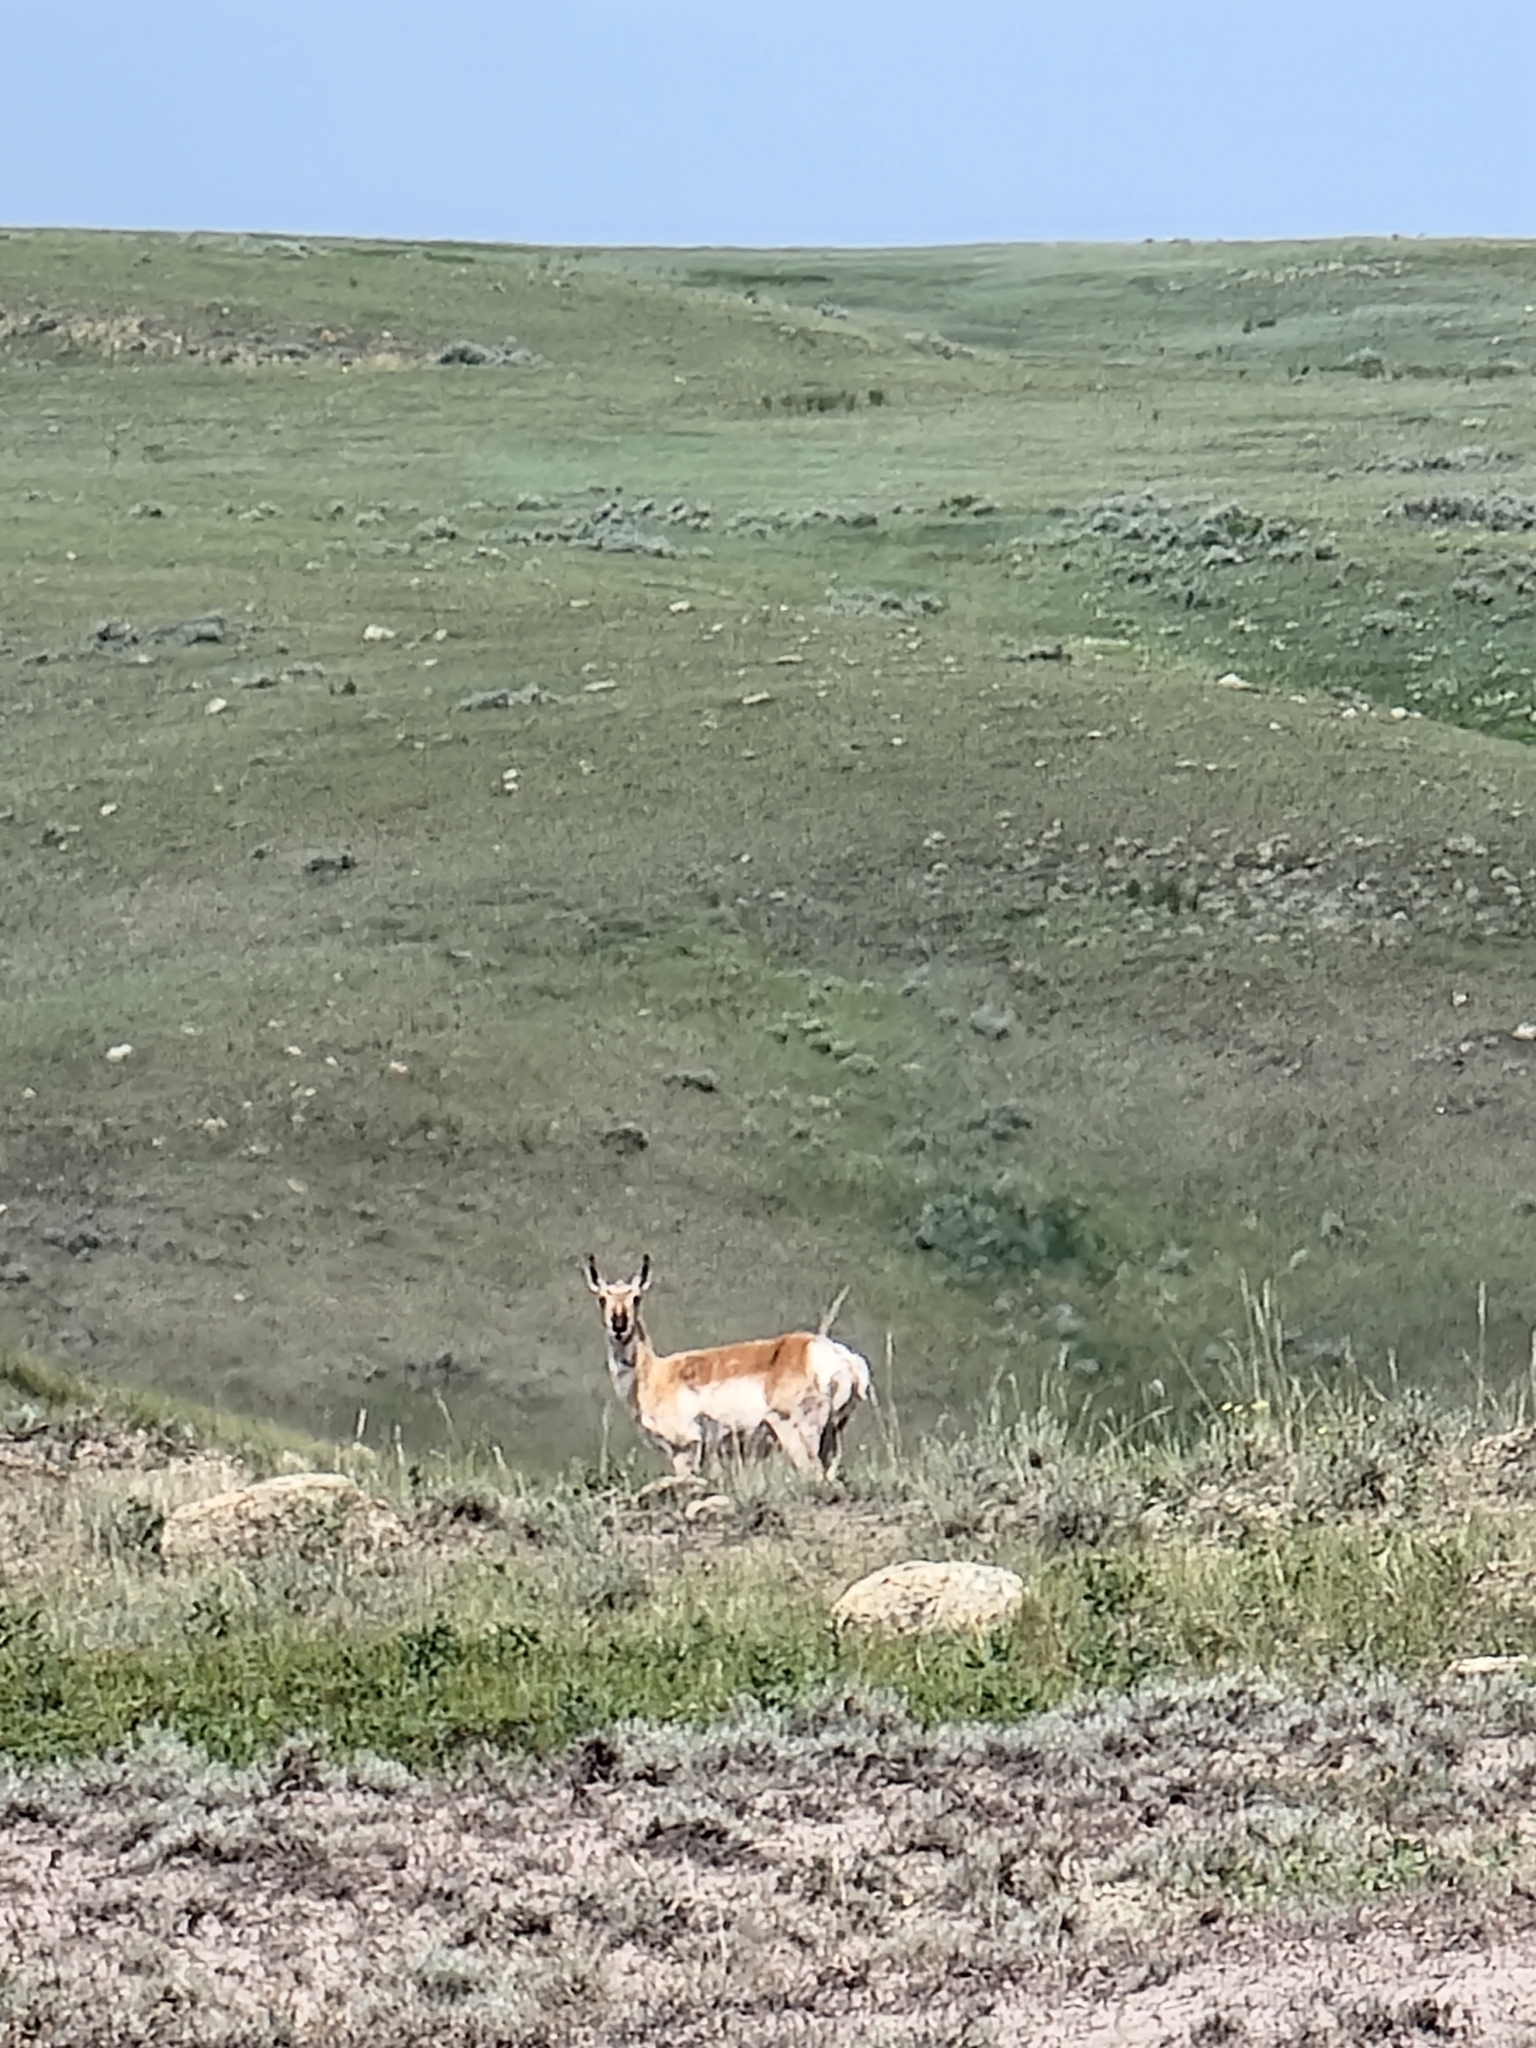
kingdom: Animalia
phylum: Chordata
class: Mammalia
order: Artiodactyla
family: Antilocapridae
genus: Antilocapra
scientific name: Antilocapra americana
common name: Pronghorn
